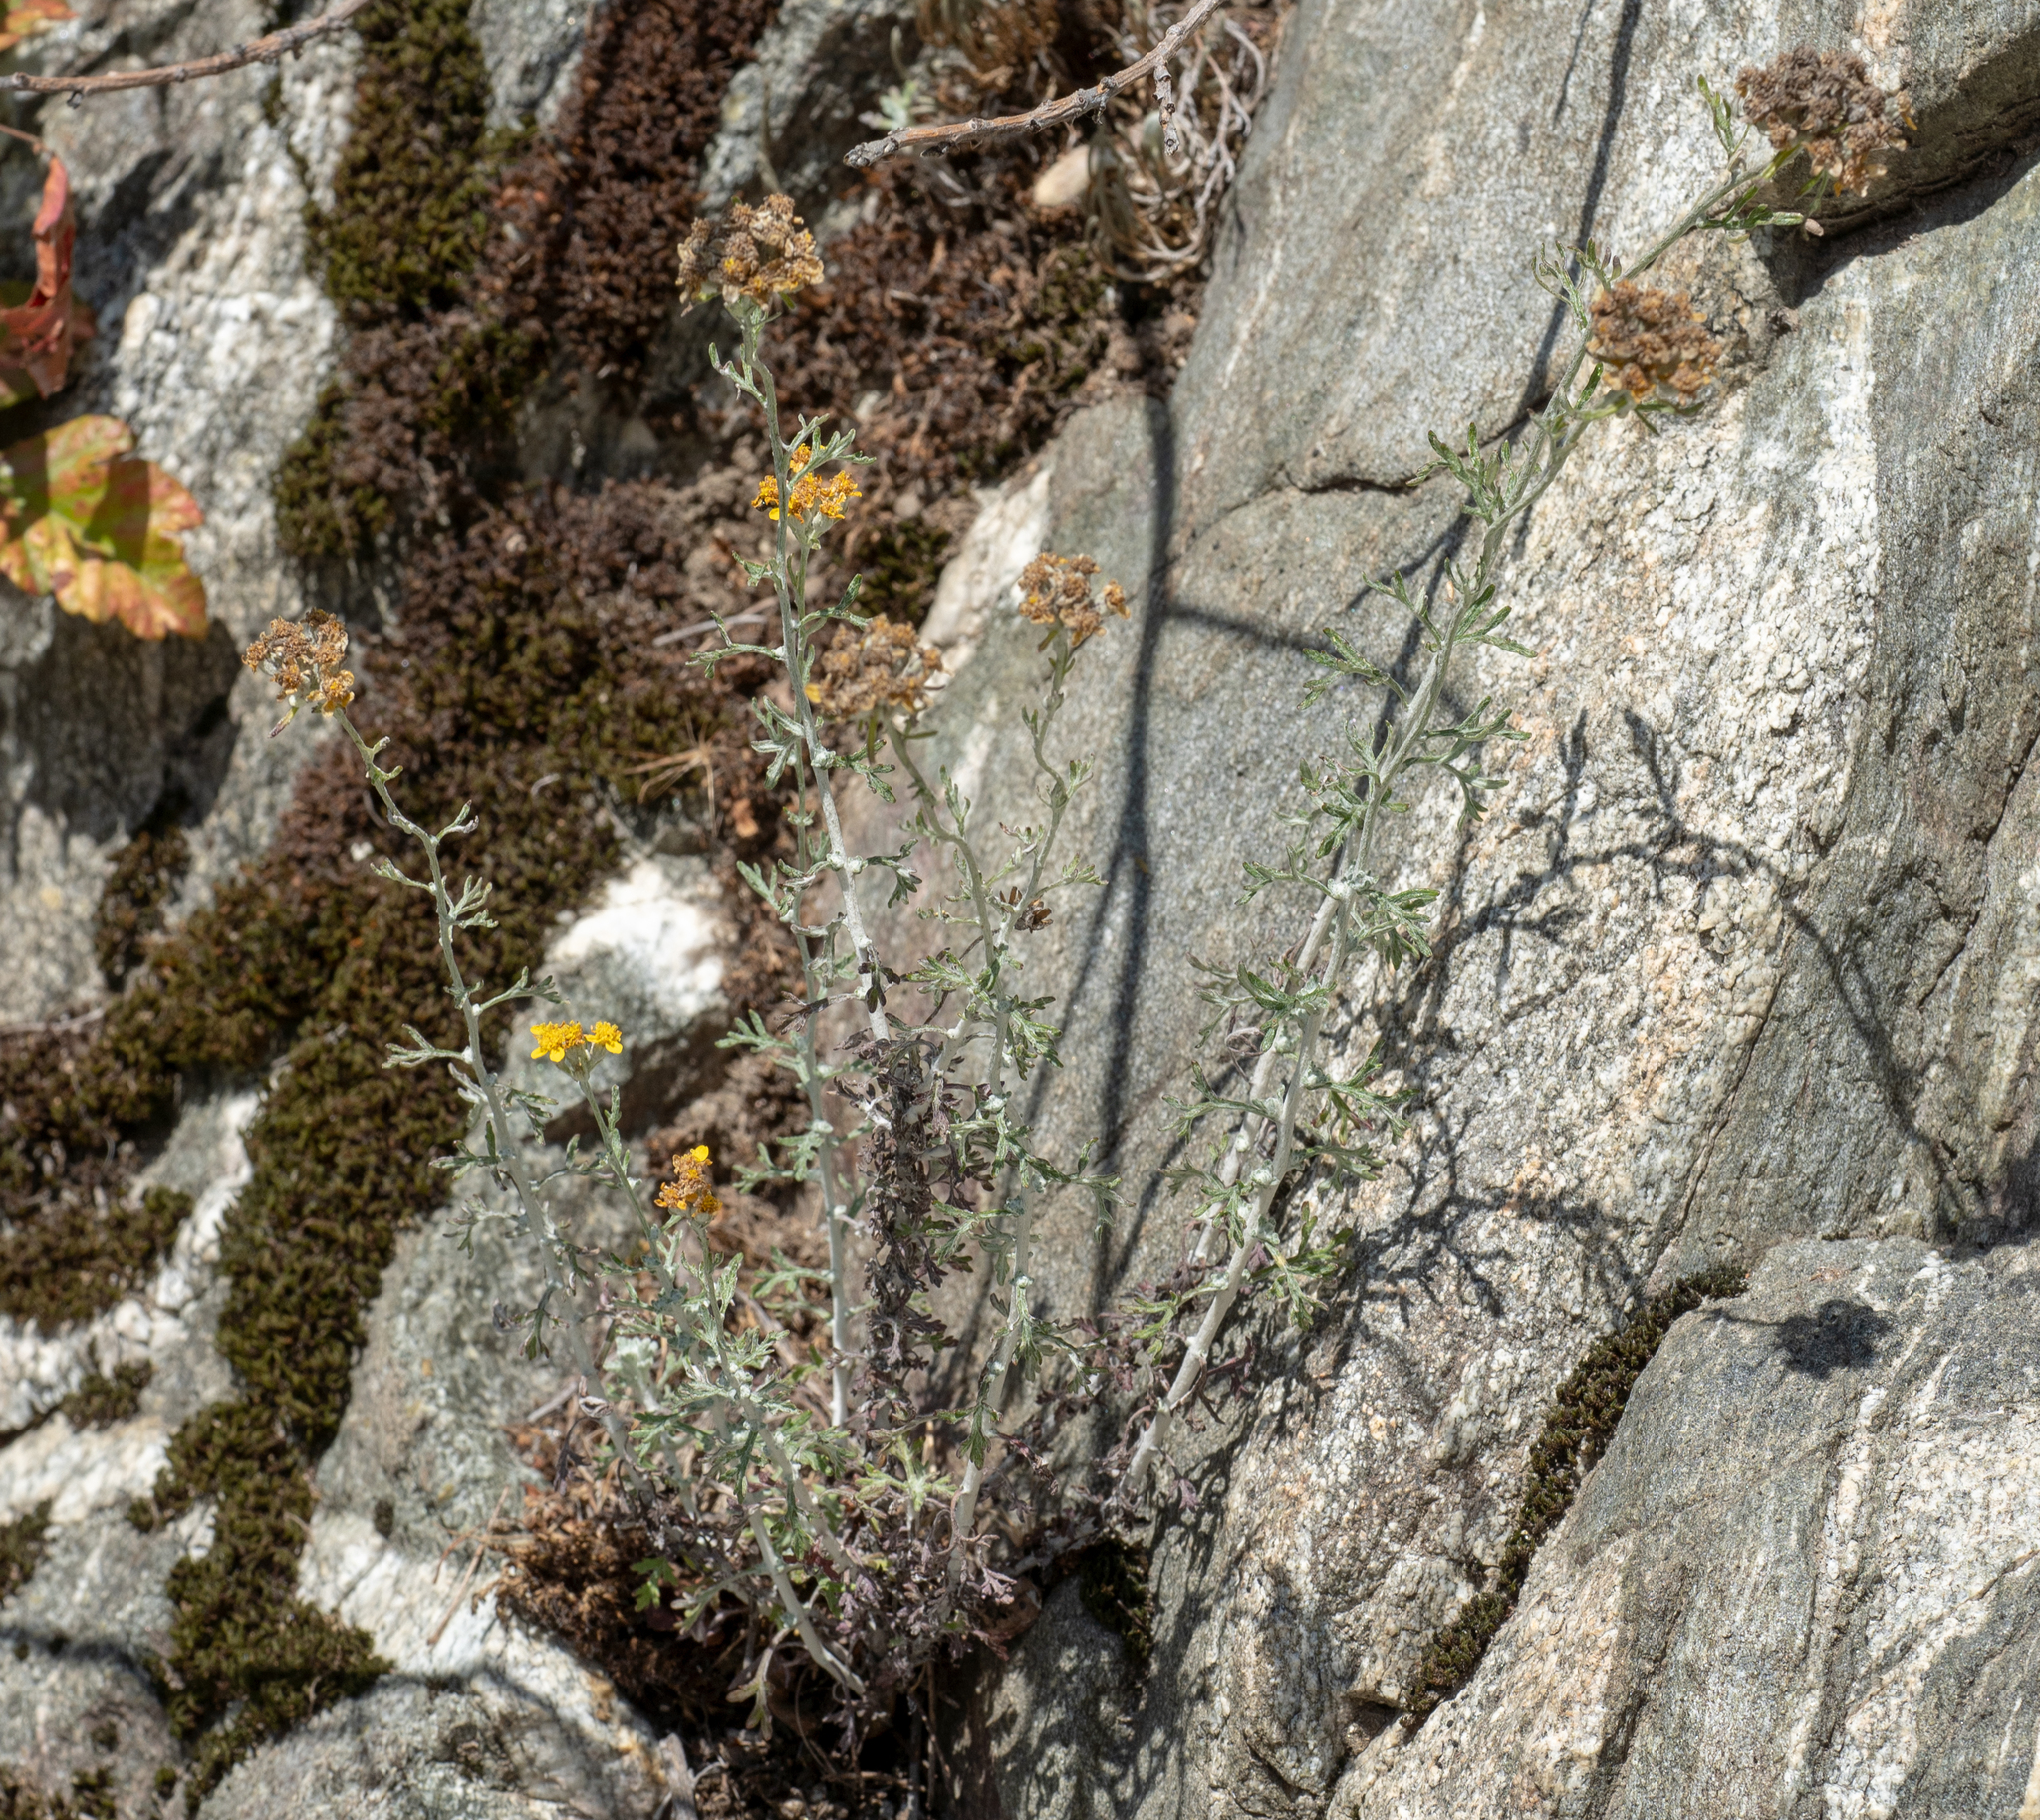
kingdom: Plantae
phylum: Tracheophyta
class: Magnoliopsida
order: Asterales
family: Asteraceae
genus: Eriophyllum
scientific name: Eriophyllum confertiflorum
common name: Golden-yarrow
